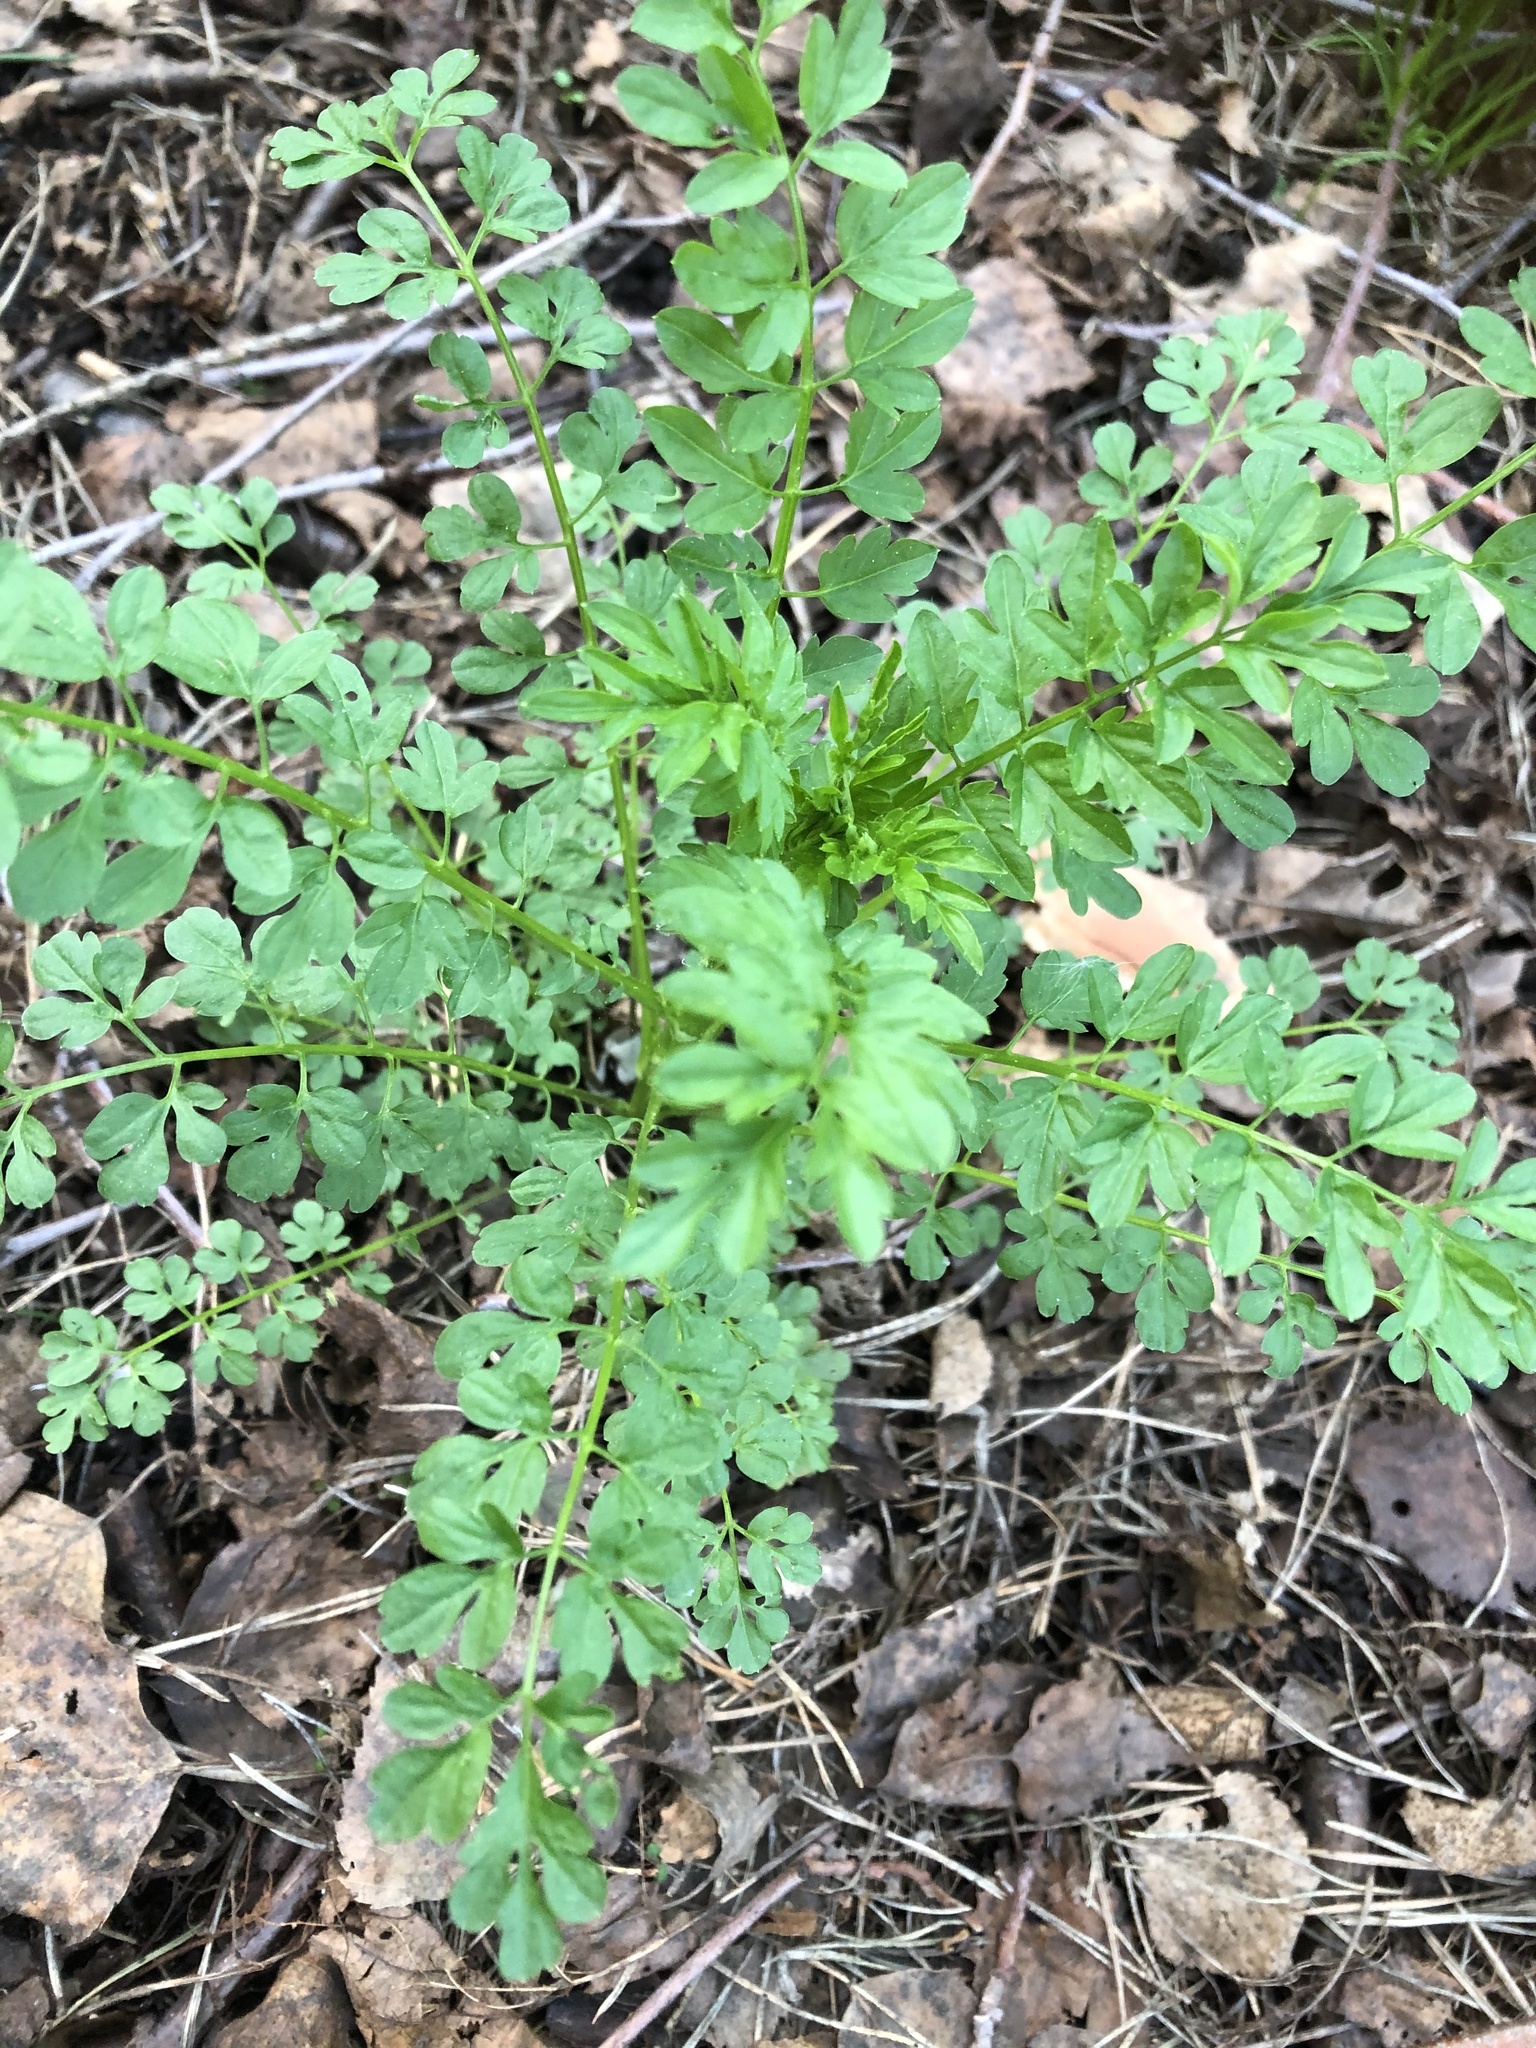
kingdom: Plantae
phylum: Tracheophyta
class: Magnoliopsida
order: Brassicales
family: Brassicaceae
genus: Cardamine
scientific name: Cardamine impatiens
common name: Narrow-leaved bitter-cress
